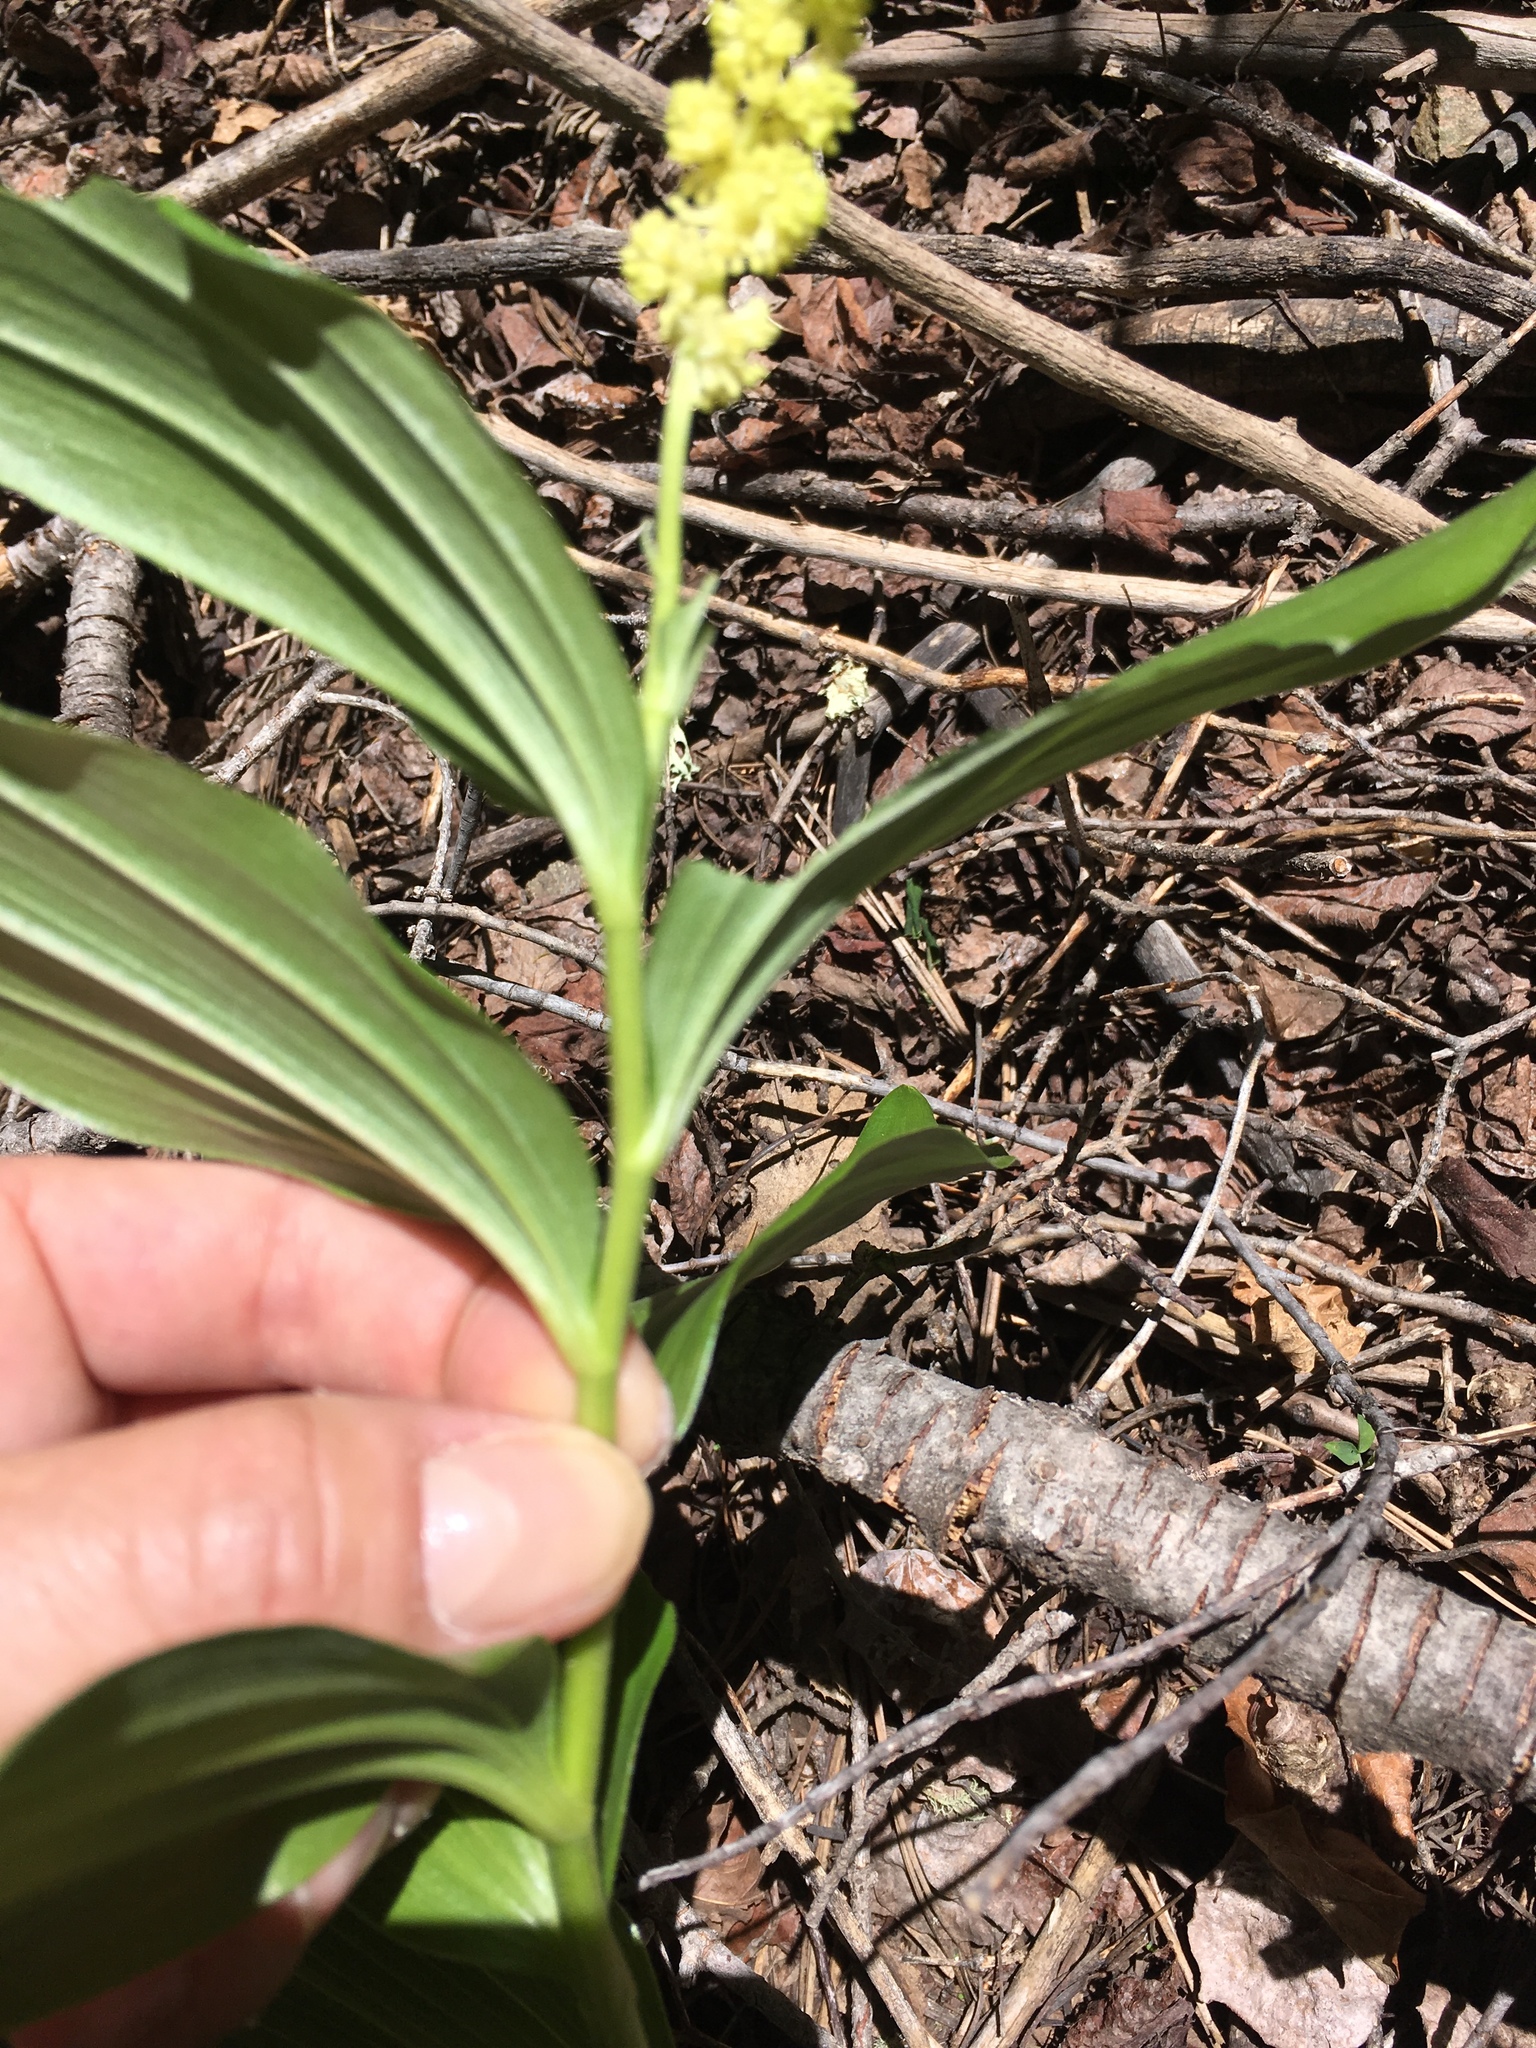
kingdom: Plantae
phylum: Tracheophyta
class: Liliopsida
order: Asparagales
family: Asparagaceae
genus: Maianthemum
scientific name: Maianthemum racemosum
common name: False spikenard
